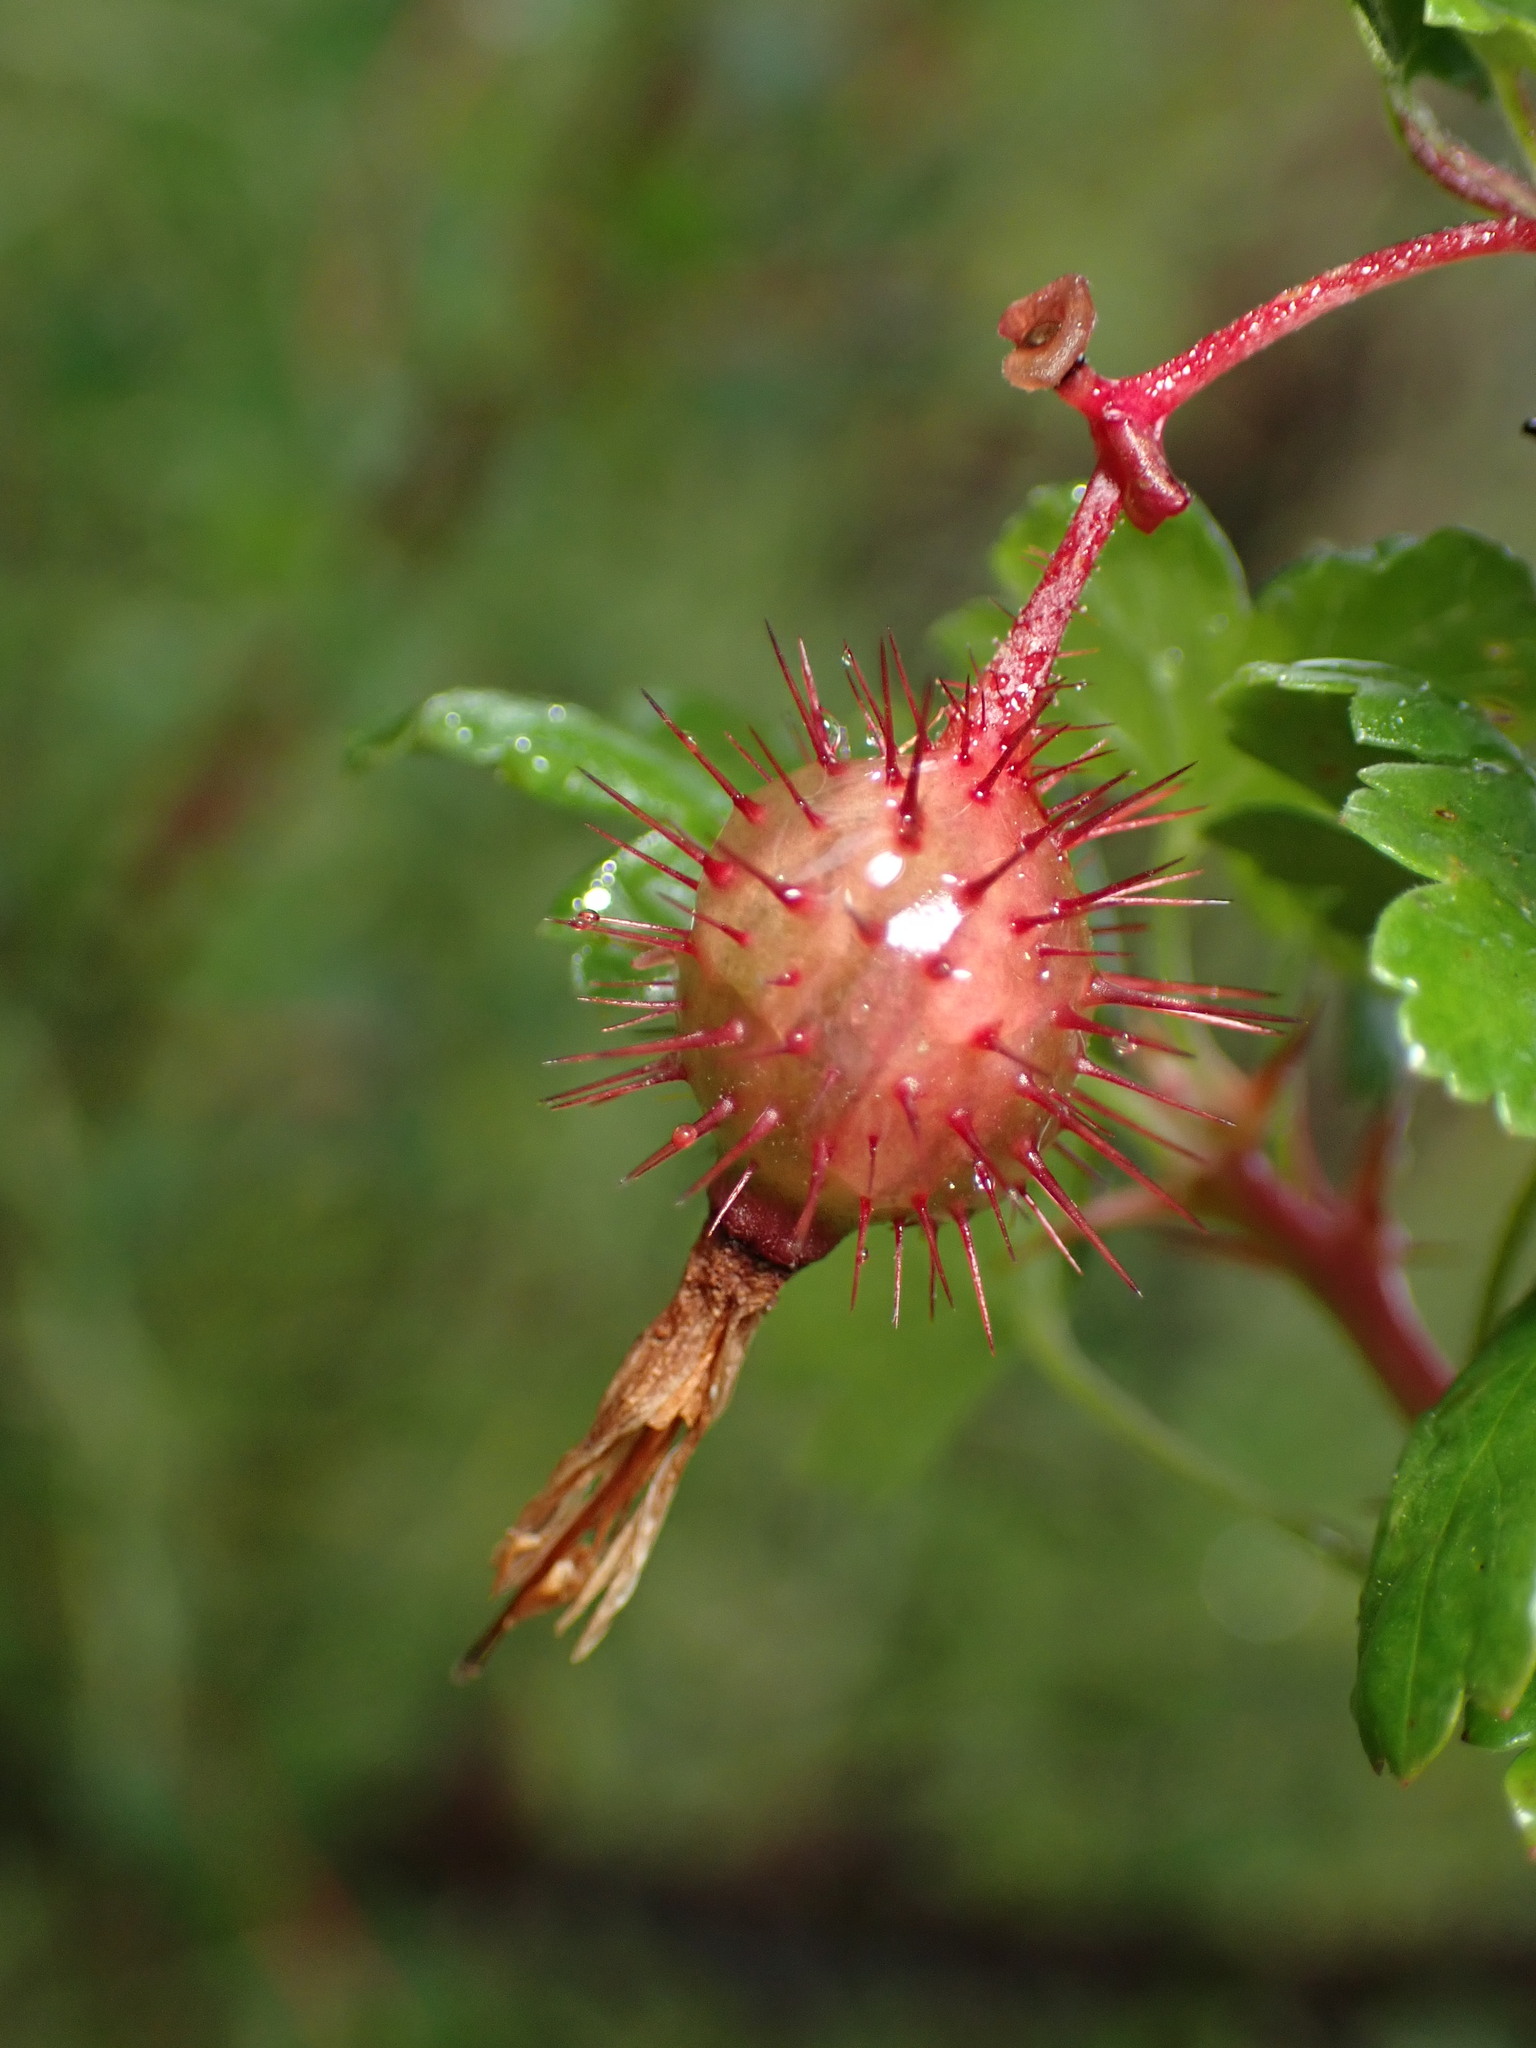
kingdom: Plantae
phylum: Tracheophyta
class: Magnoliopsida
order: Saxifragales
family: Grossulariaceae
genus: Ribes
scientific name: Ribes californicum
